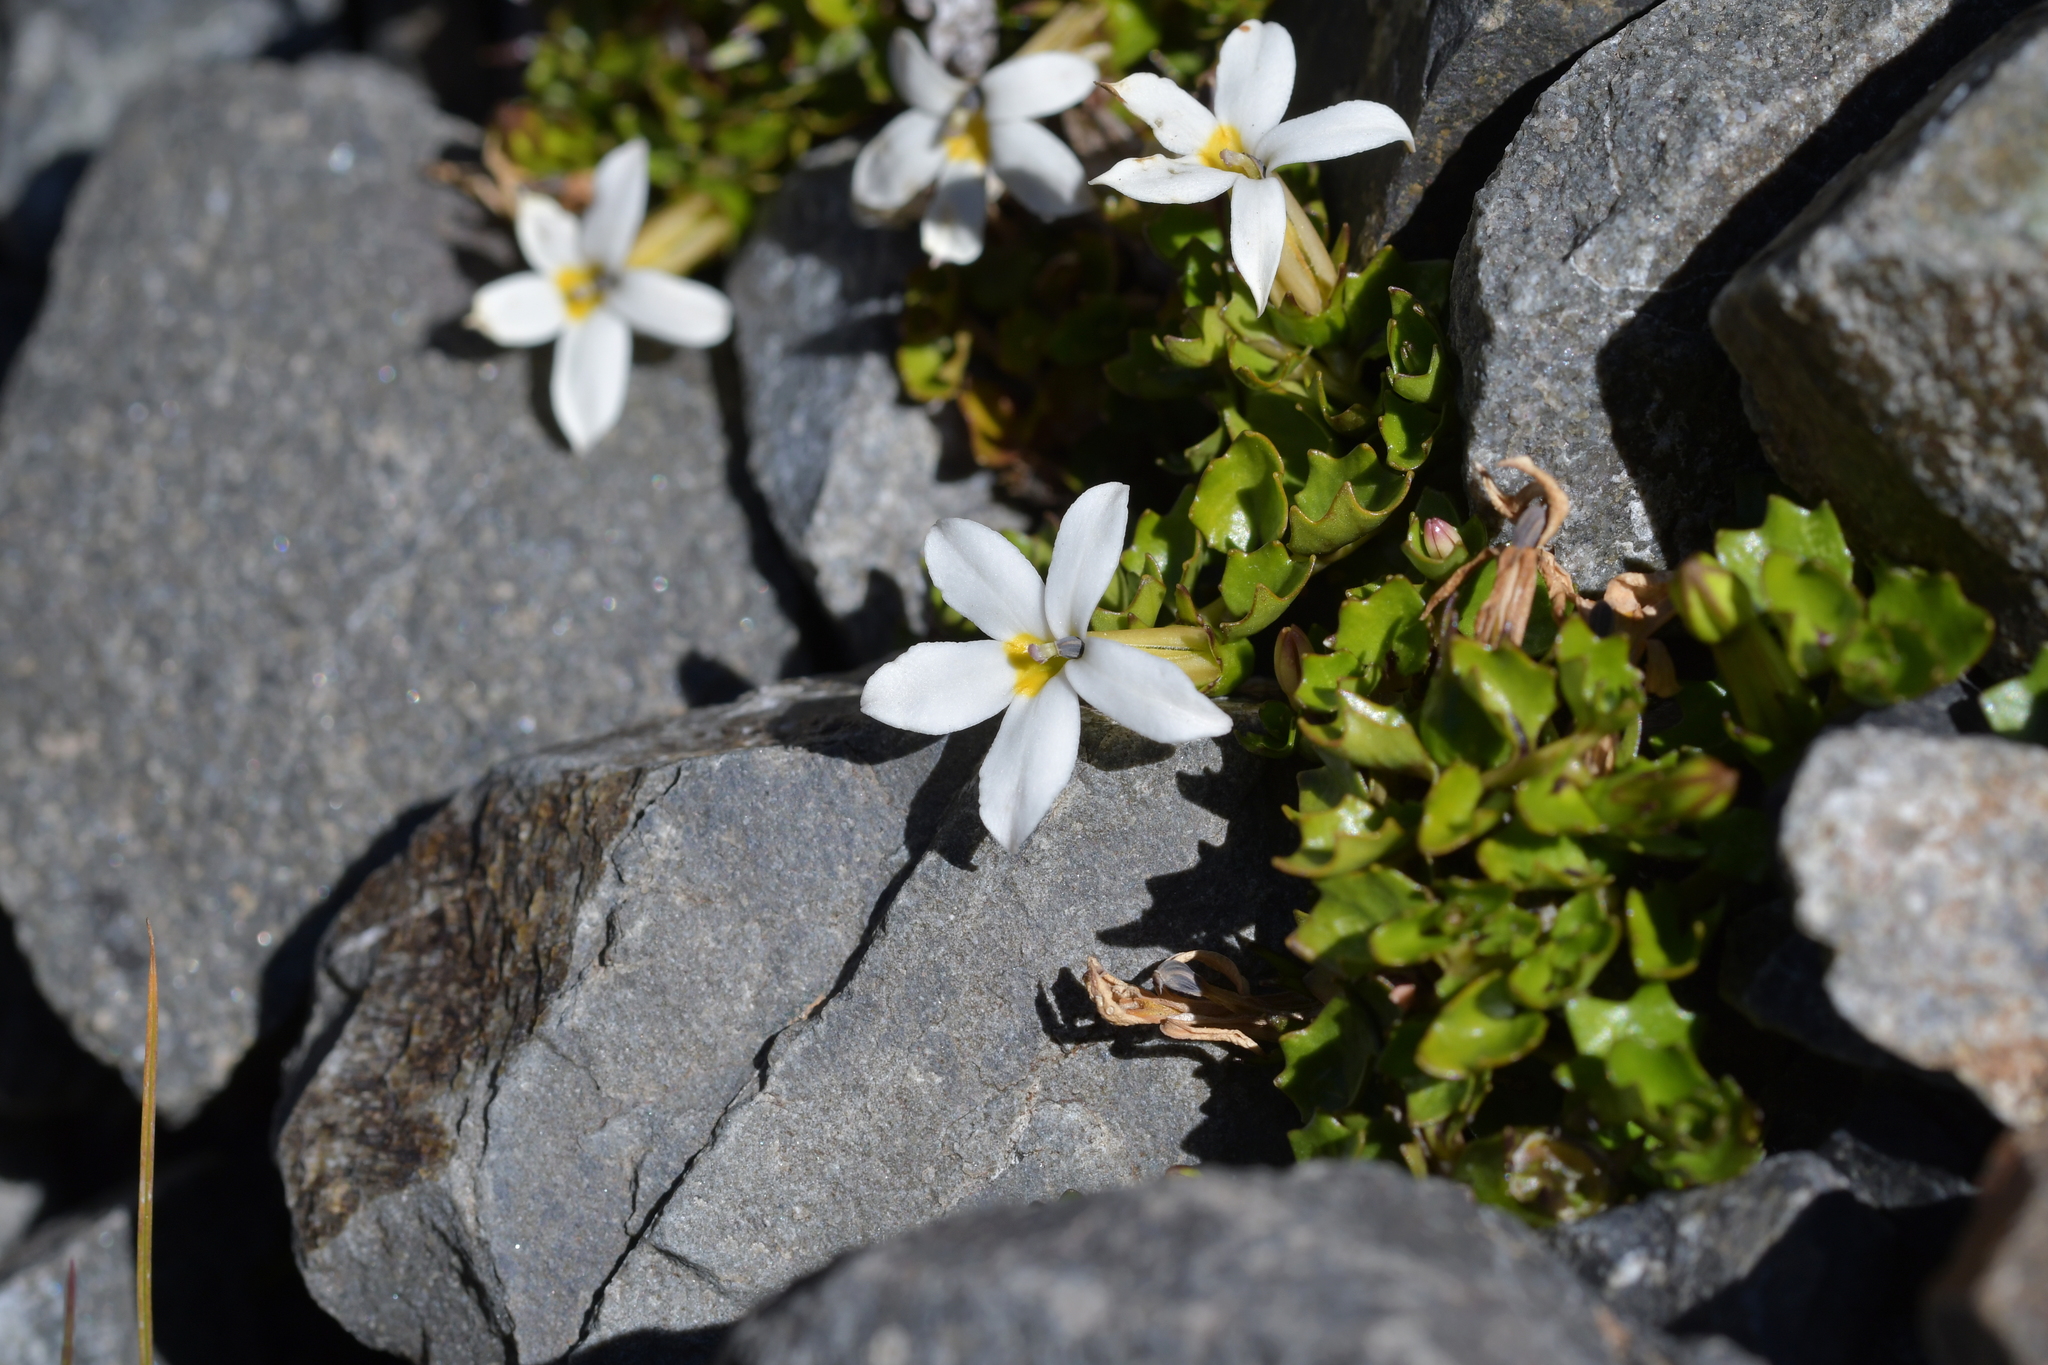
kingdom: Plantae
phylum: Tracheophyta
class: Magnoliopsida
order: Asterales
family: Campanulaceae
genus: Lobelia
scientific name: Lobelia macrodon
